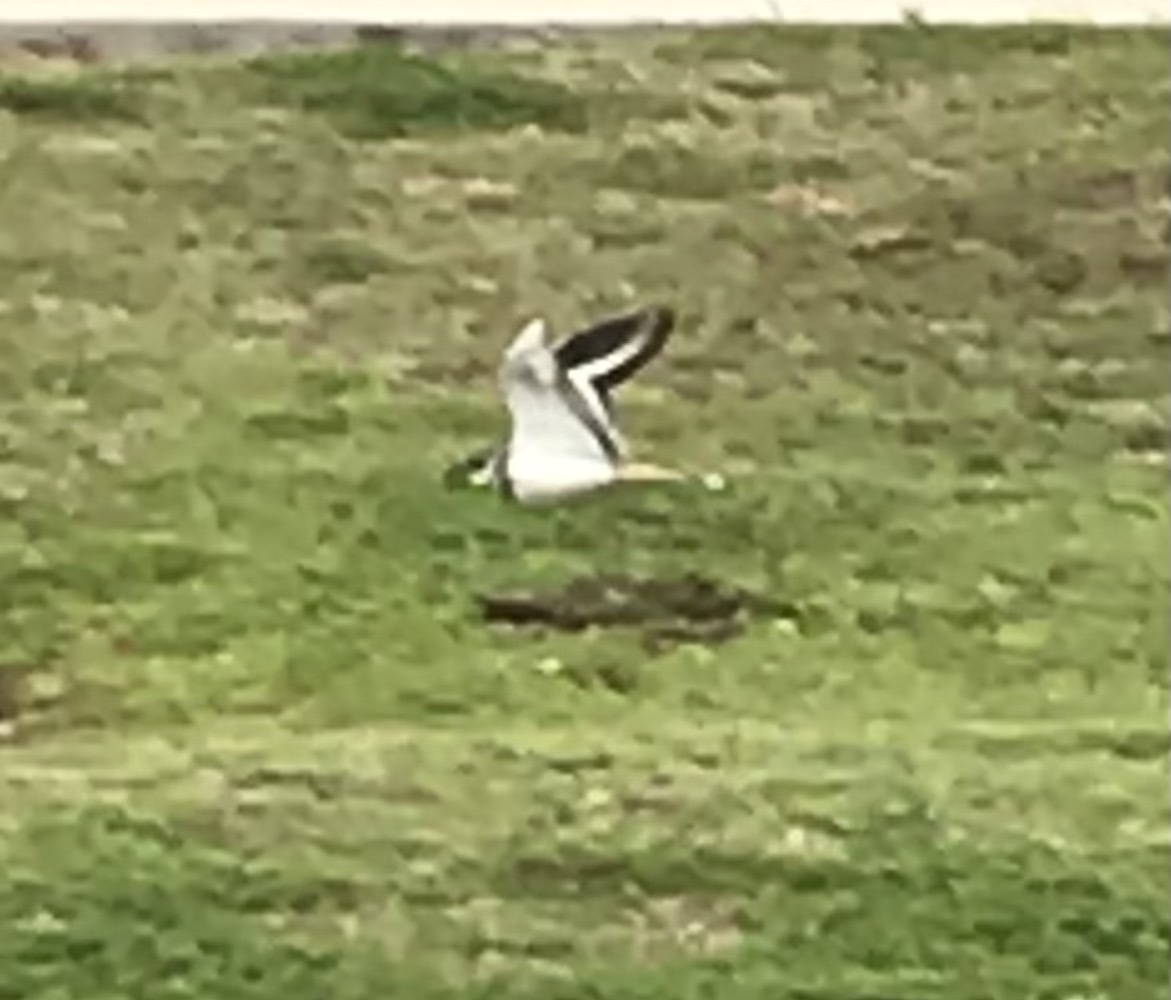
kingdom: Animalia
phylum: Chordata
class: Aves
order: Charadriiformes
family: Charadriidae
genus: Charadrius
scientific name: Charadrius vociferus
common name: Killdeer
